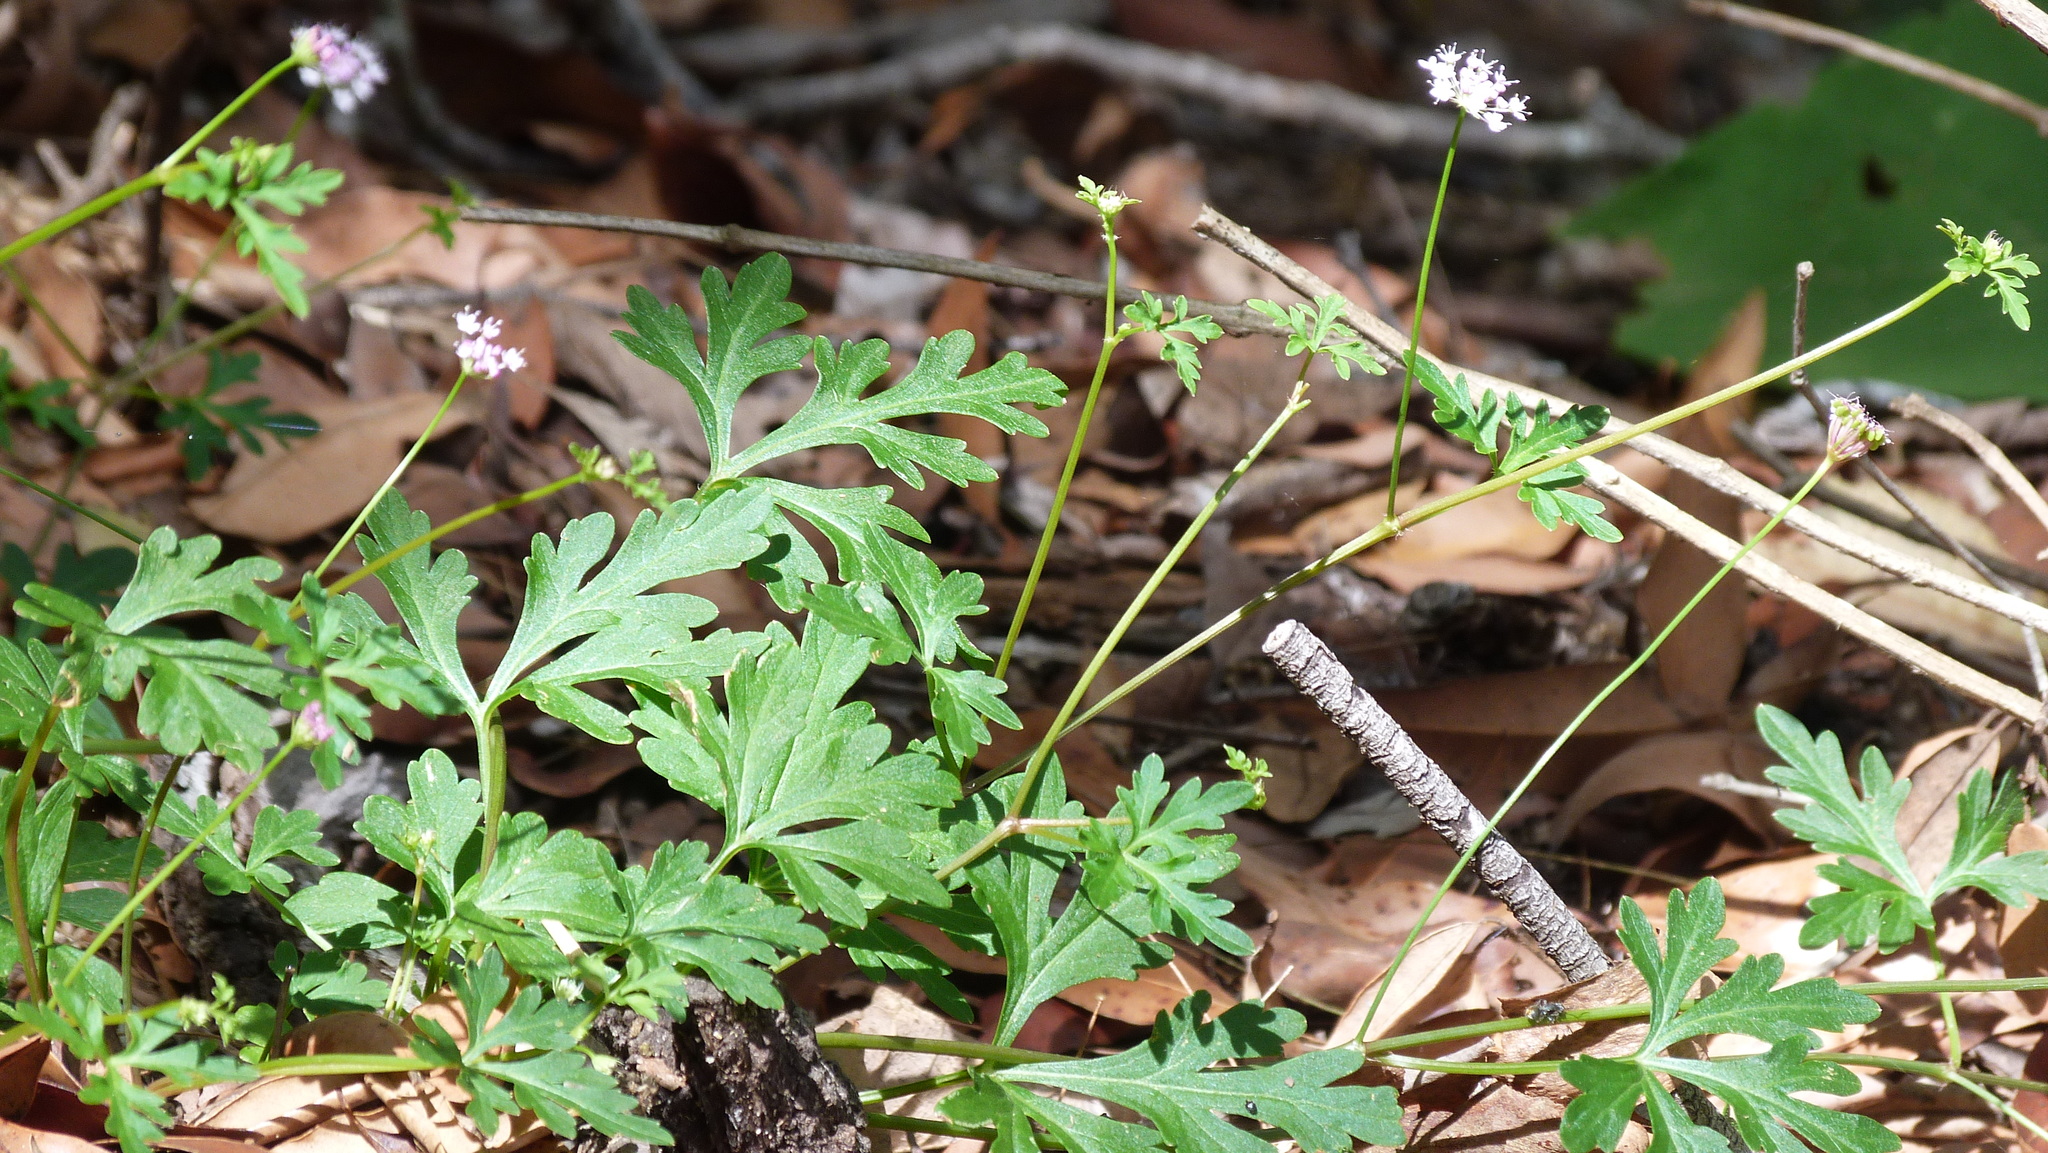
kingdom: Plantae
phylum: Tracheophyta
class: Magnoliopsida
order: Apiales
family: Araliaceae
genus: Trachymene
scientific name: Trachymene procumbens
